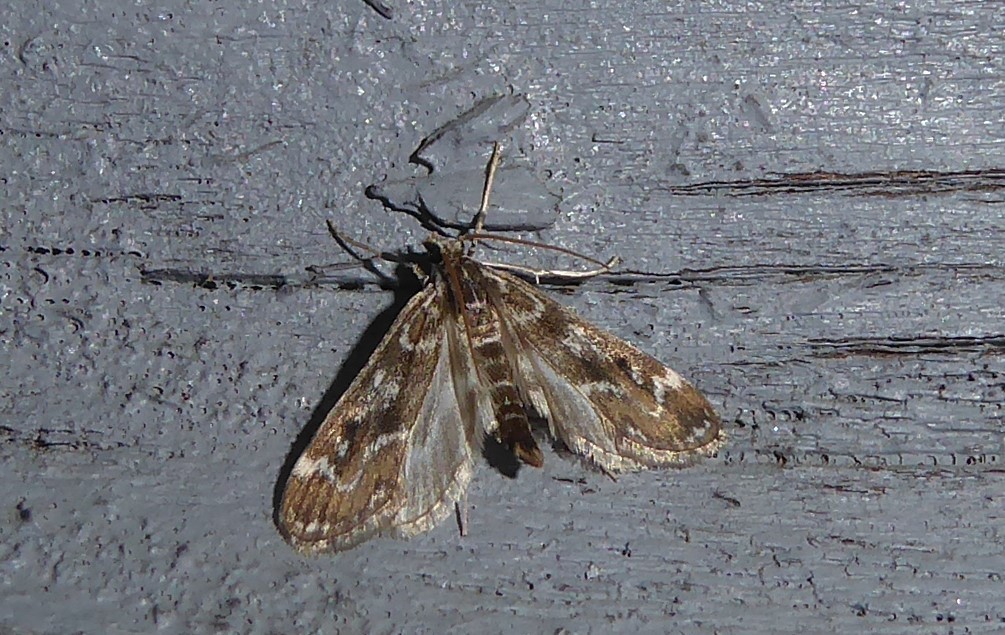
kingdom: Animalia
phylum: Arthropoda
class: Insecta
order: Lepidoptera
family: Crambidae
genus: Hygraula
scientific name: Hygraula nitens
